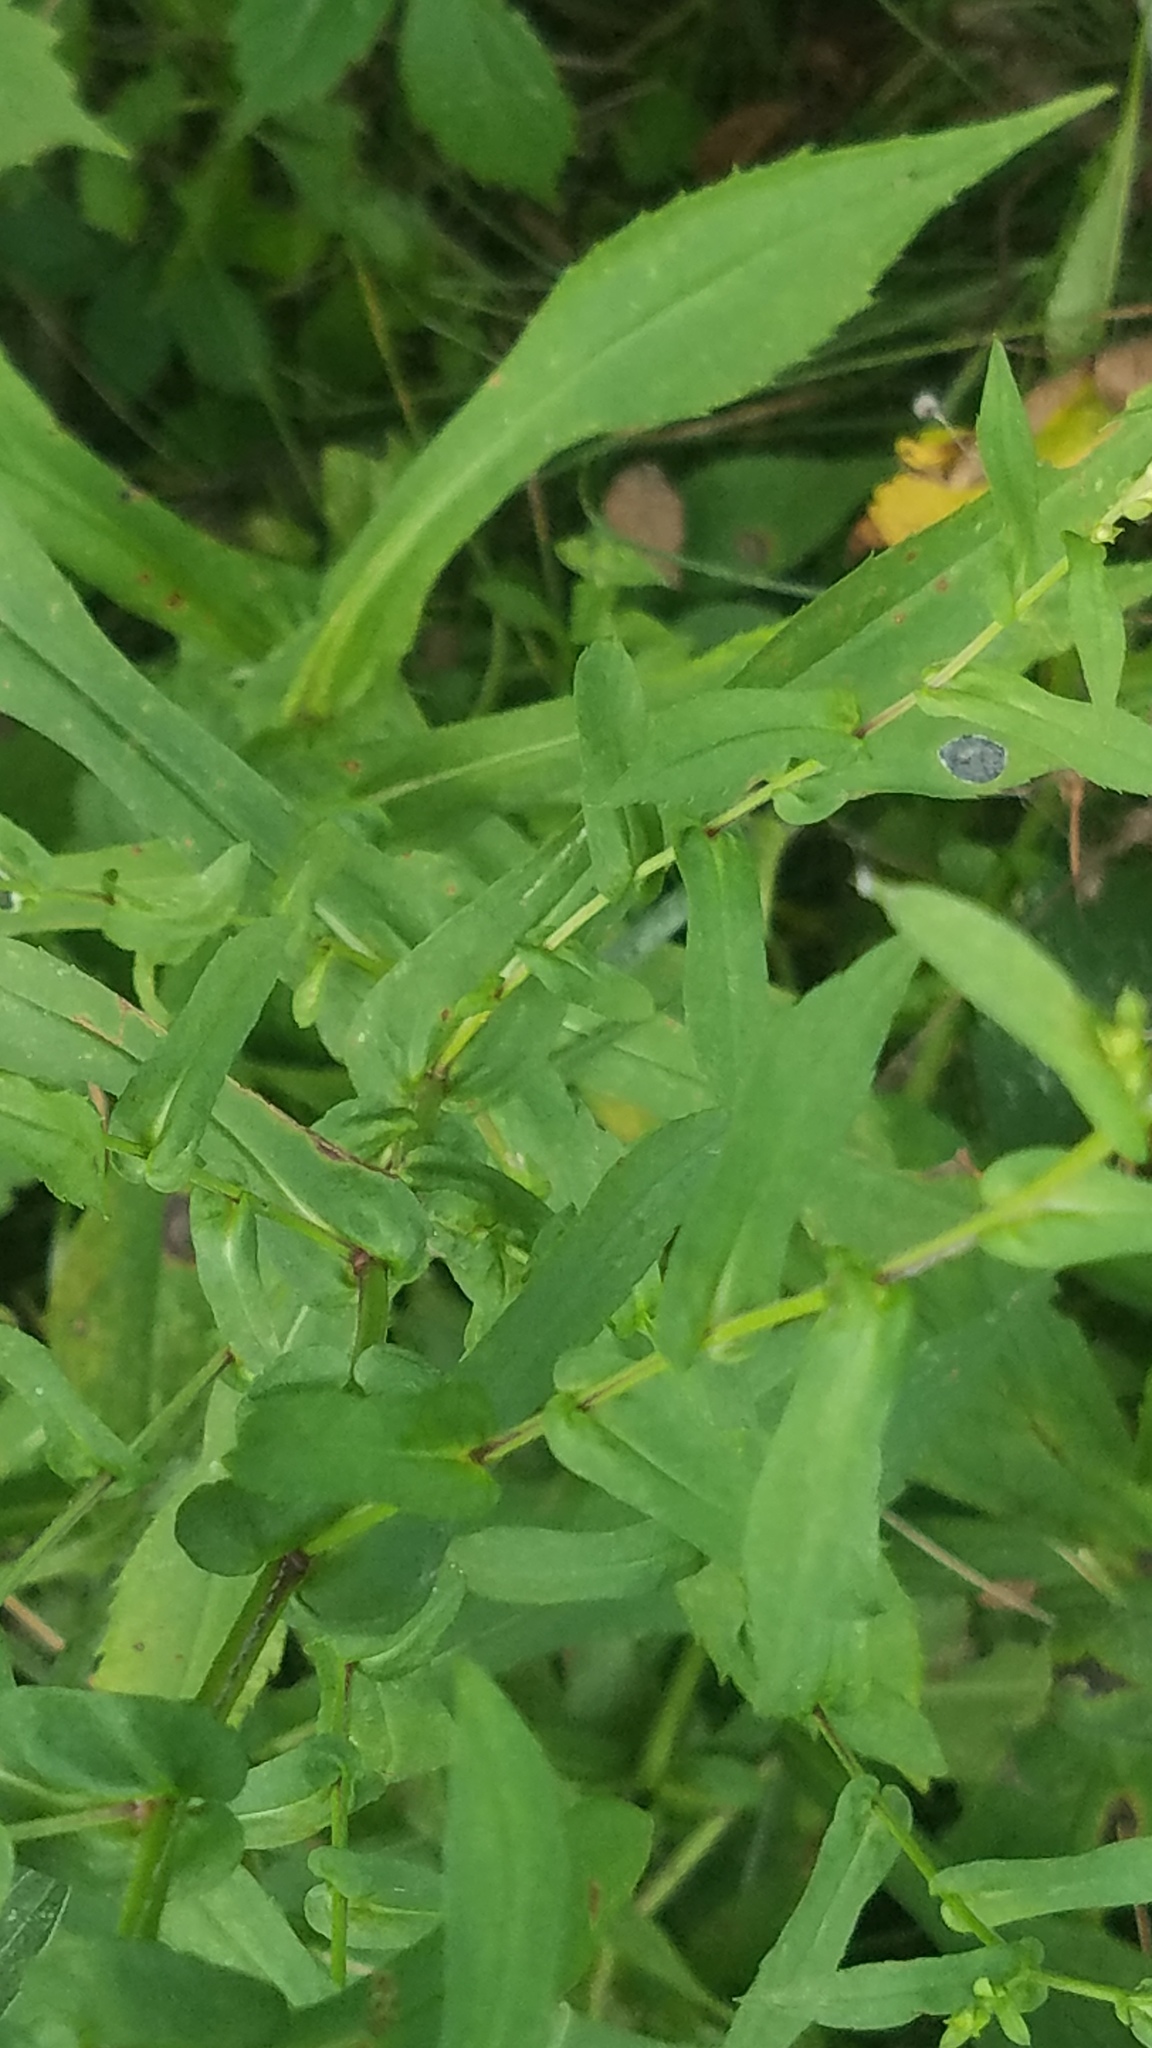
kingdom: Plantae
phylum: Tracheophyta
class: Magnoliopsida
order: Asterales
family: Asteraceae
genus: Symphyotrichum
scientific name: Symphyotrichum prenanthoides
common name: Crooked-stem aster
